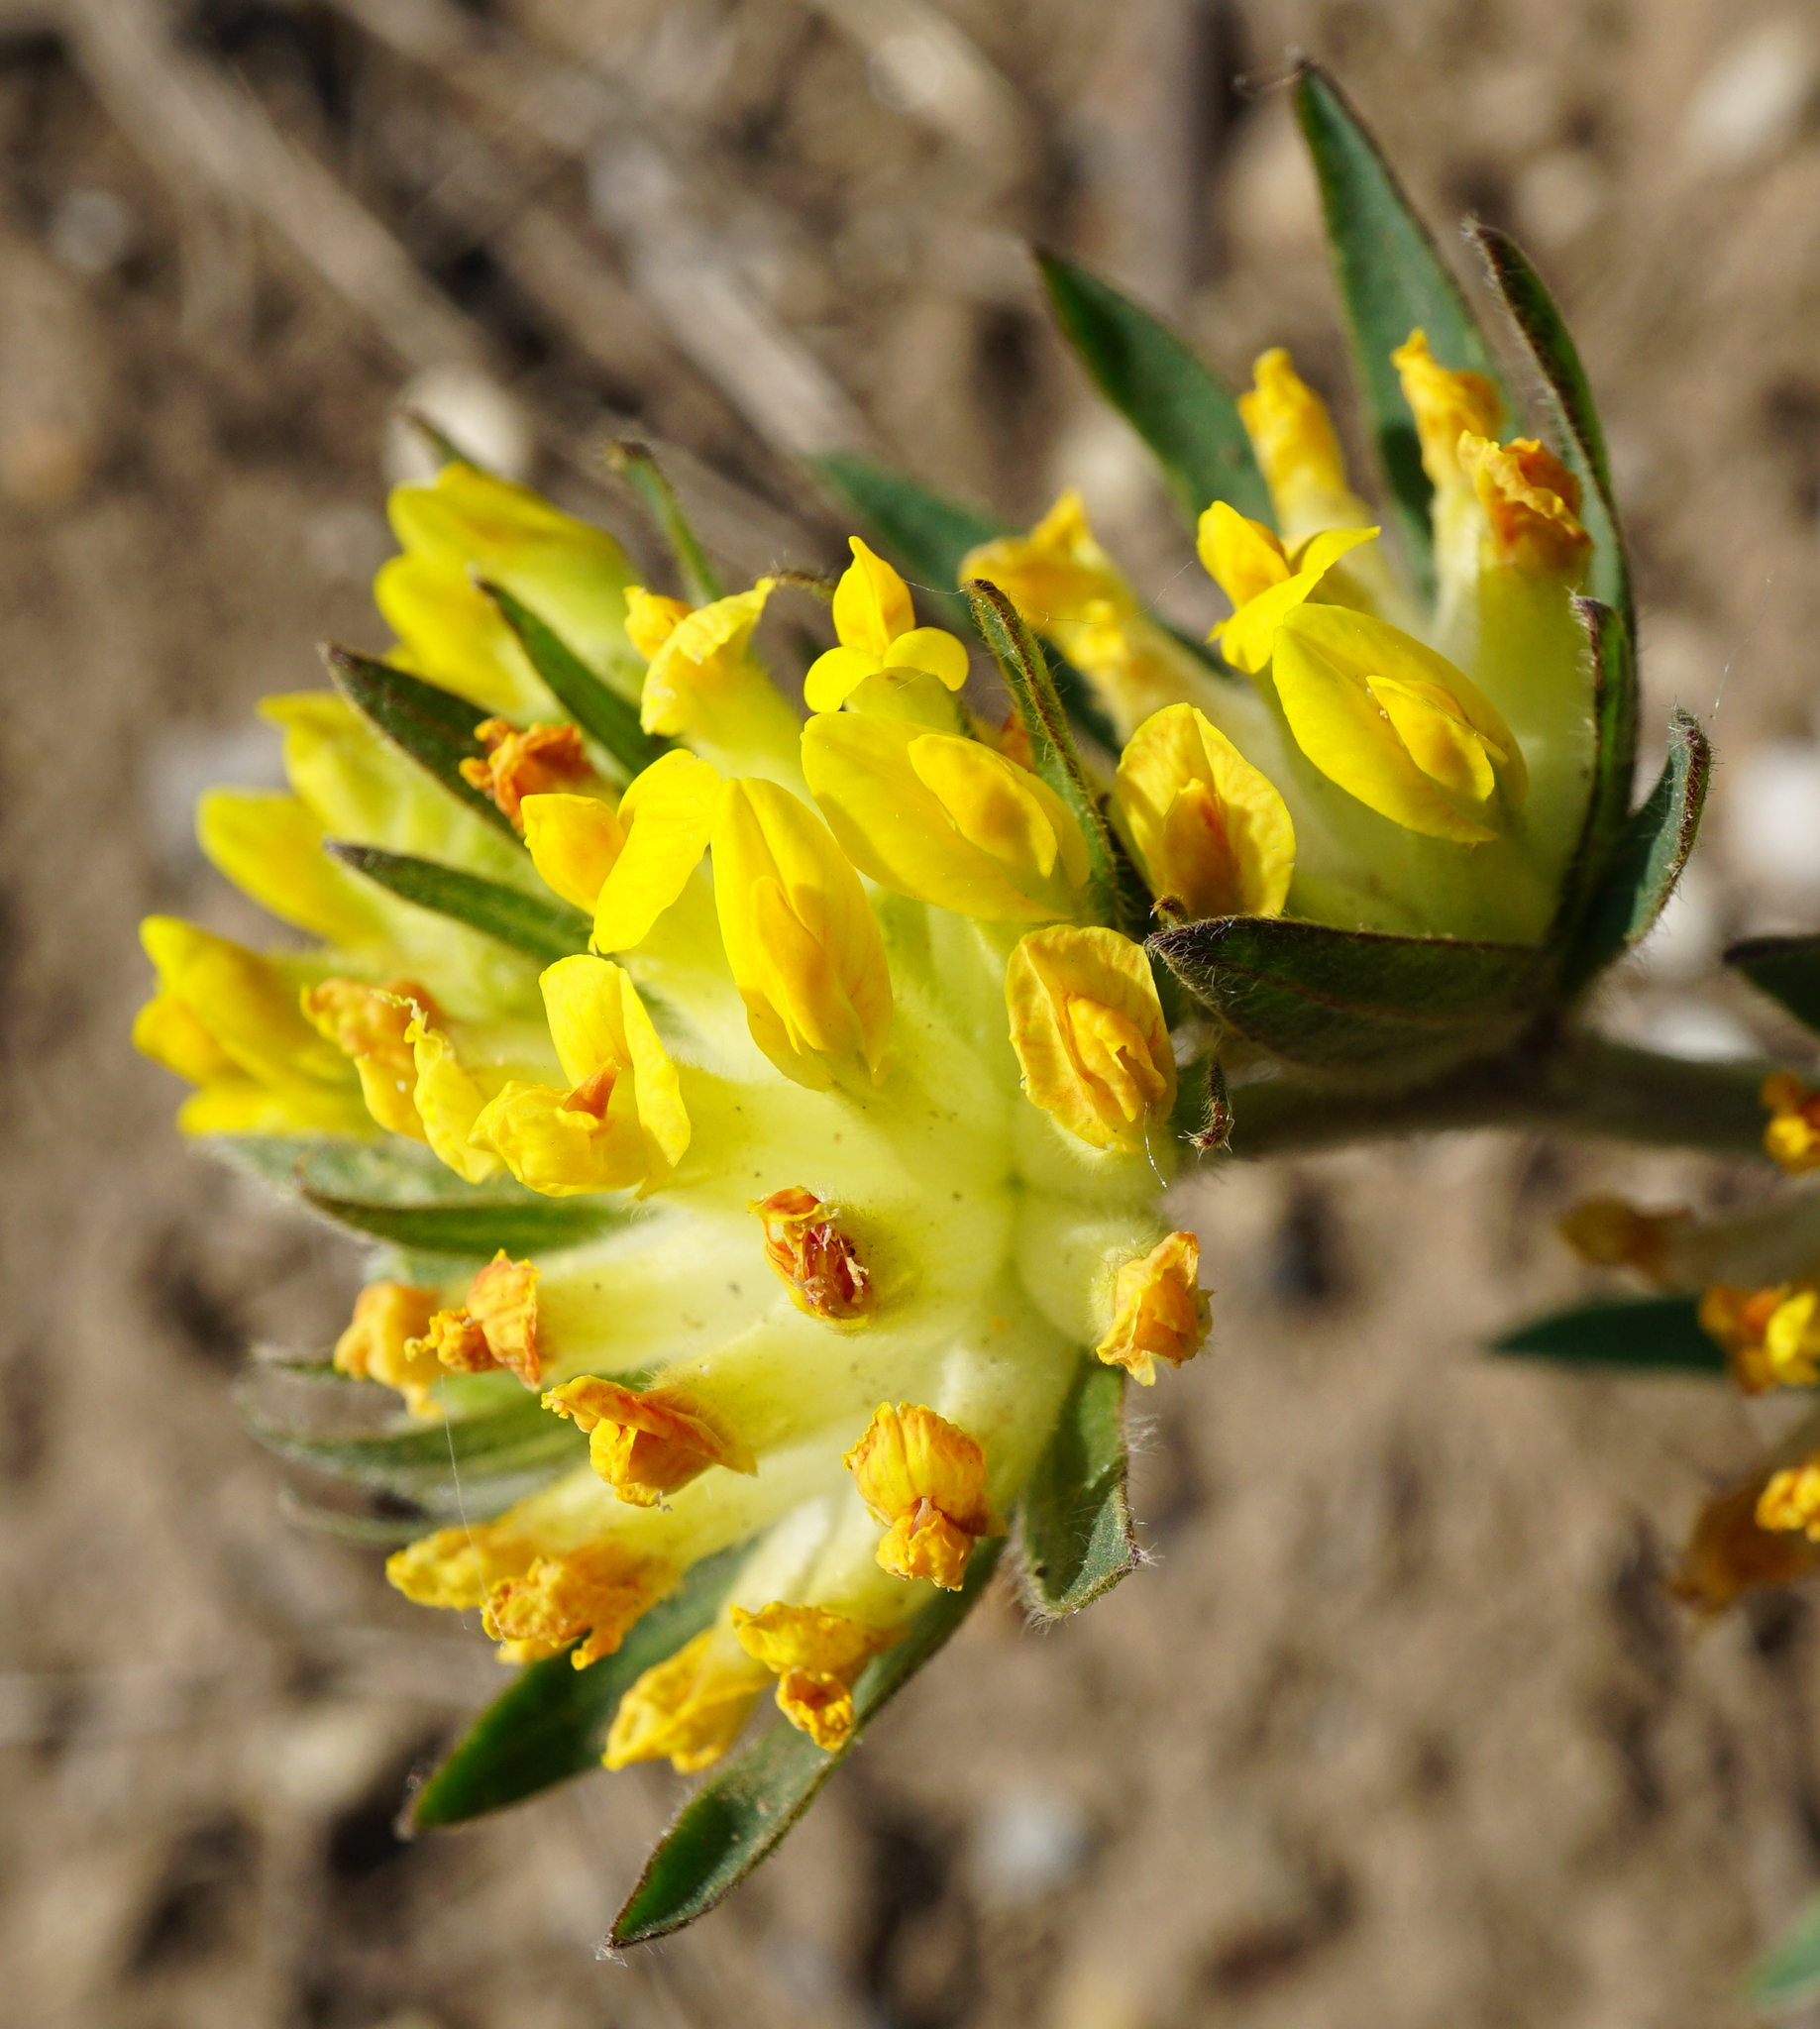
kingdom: Plantae
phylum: Tracheophyta
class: Magnoliopsida
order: Fabales
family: Fabaceae
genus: Anthyllis
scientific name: Anthyllis vulneraria
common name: Kidney vetch
